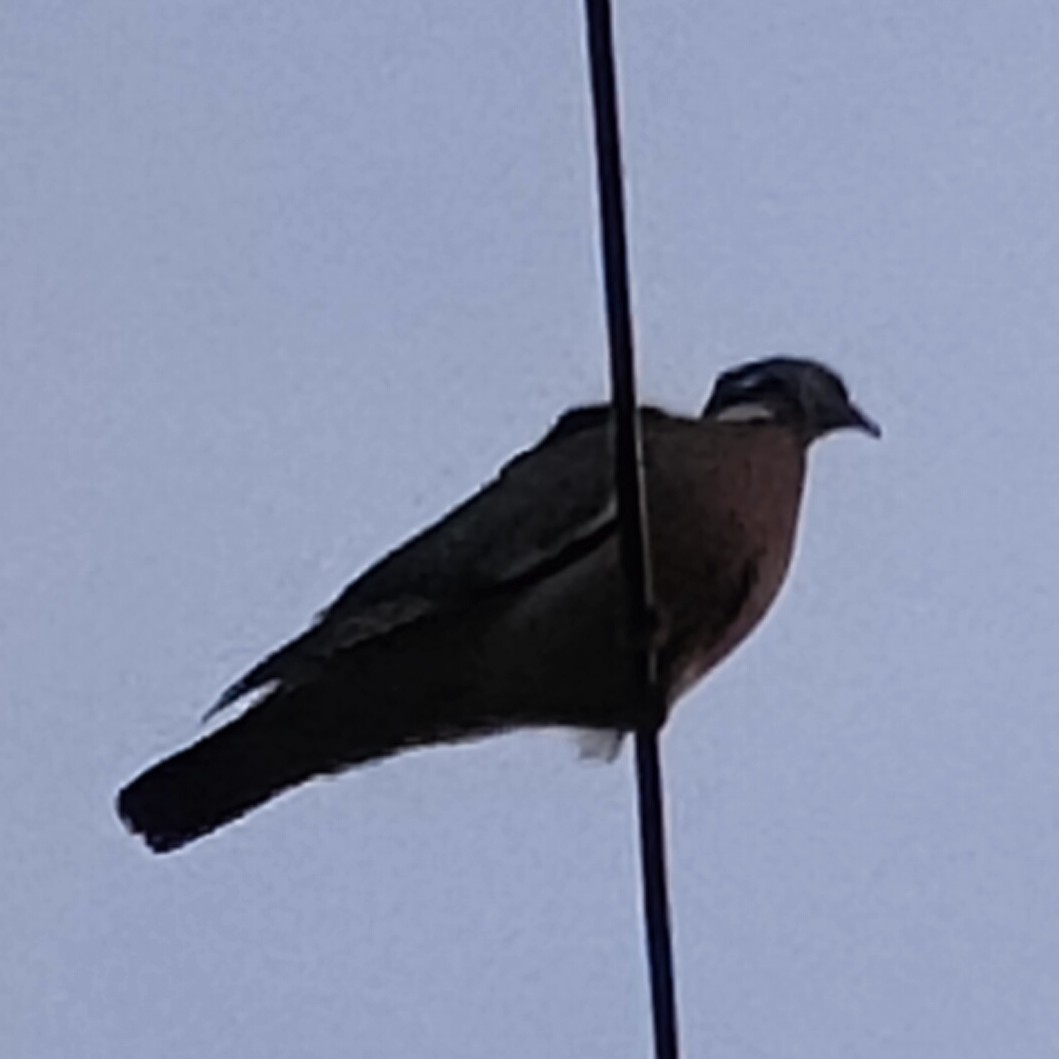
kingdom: Animalia
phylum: Chordata
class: Aves
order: Columbiformes
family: Columbidae
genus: Columba
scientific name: Columba palumbus
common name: Common wood pigeon
